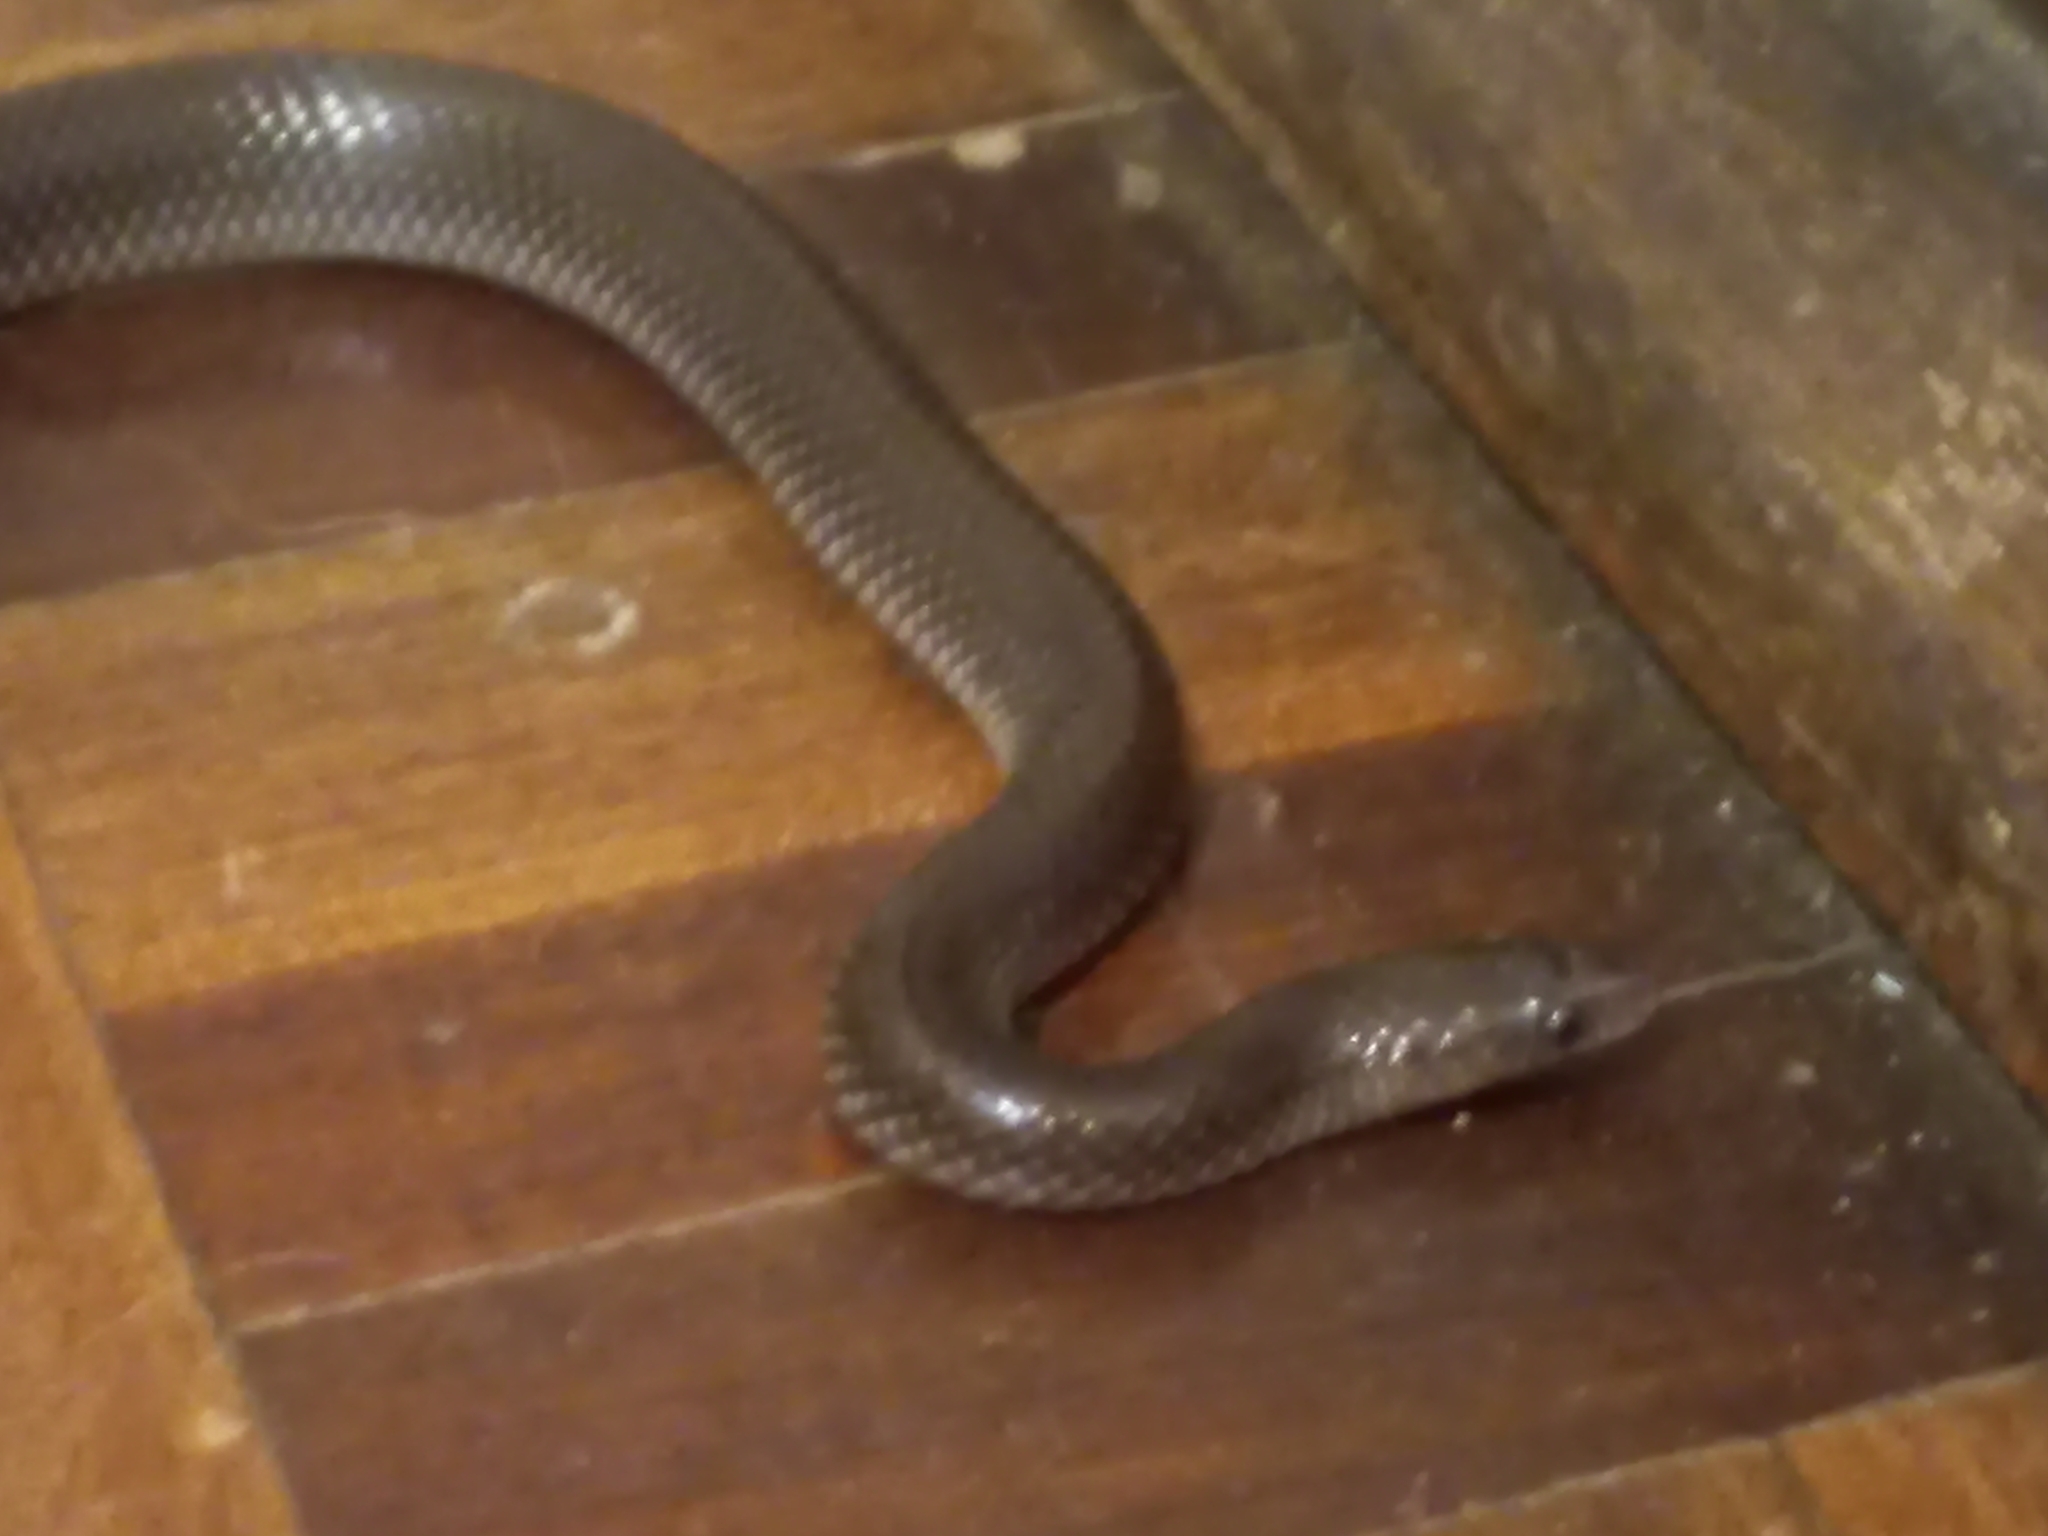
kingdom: Animalia
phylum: Chordata
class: Squamata
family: Lamprophiidae
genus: Lycophidion
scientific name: Lycophidion capense
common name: Cape wolf snake
